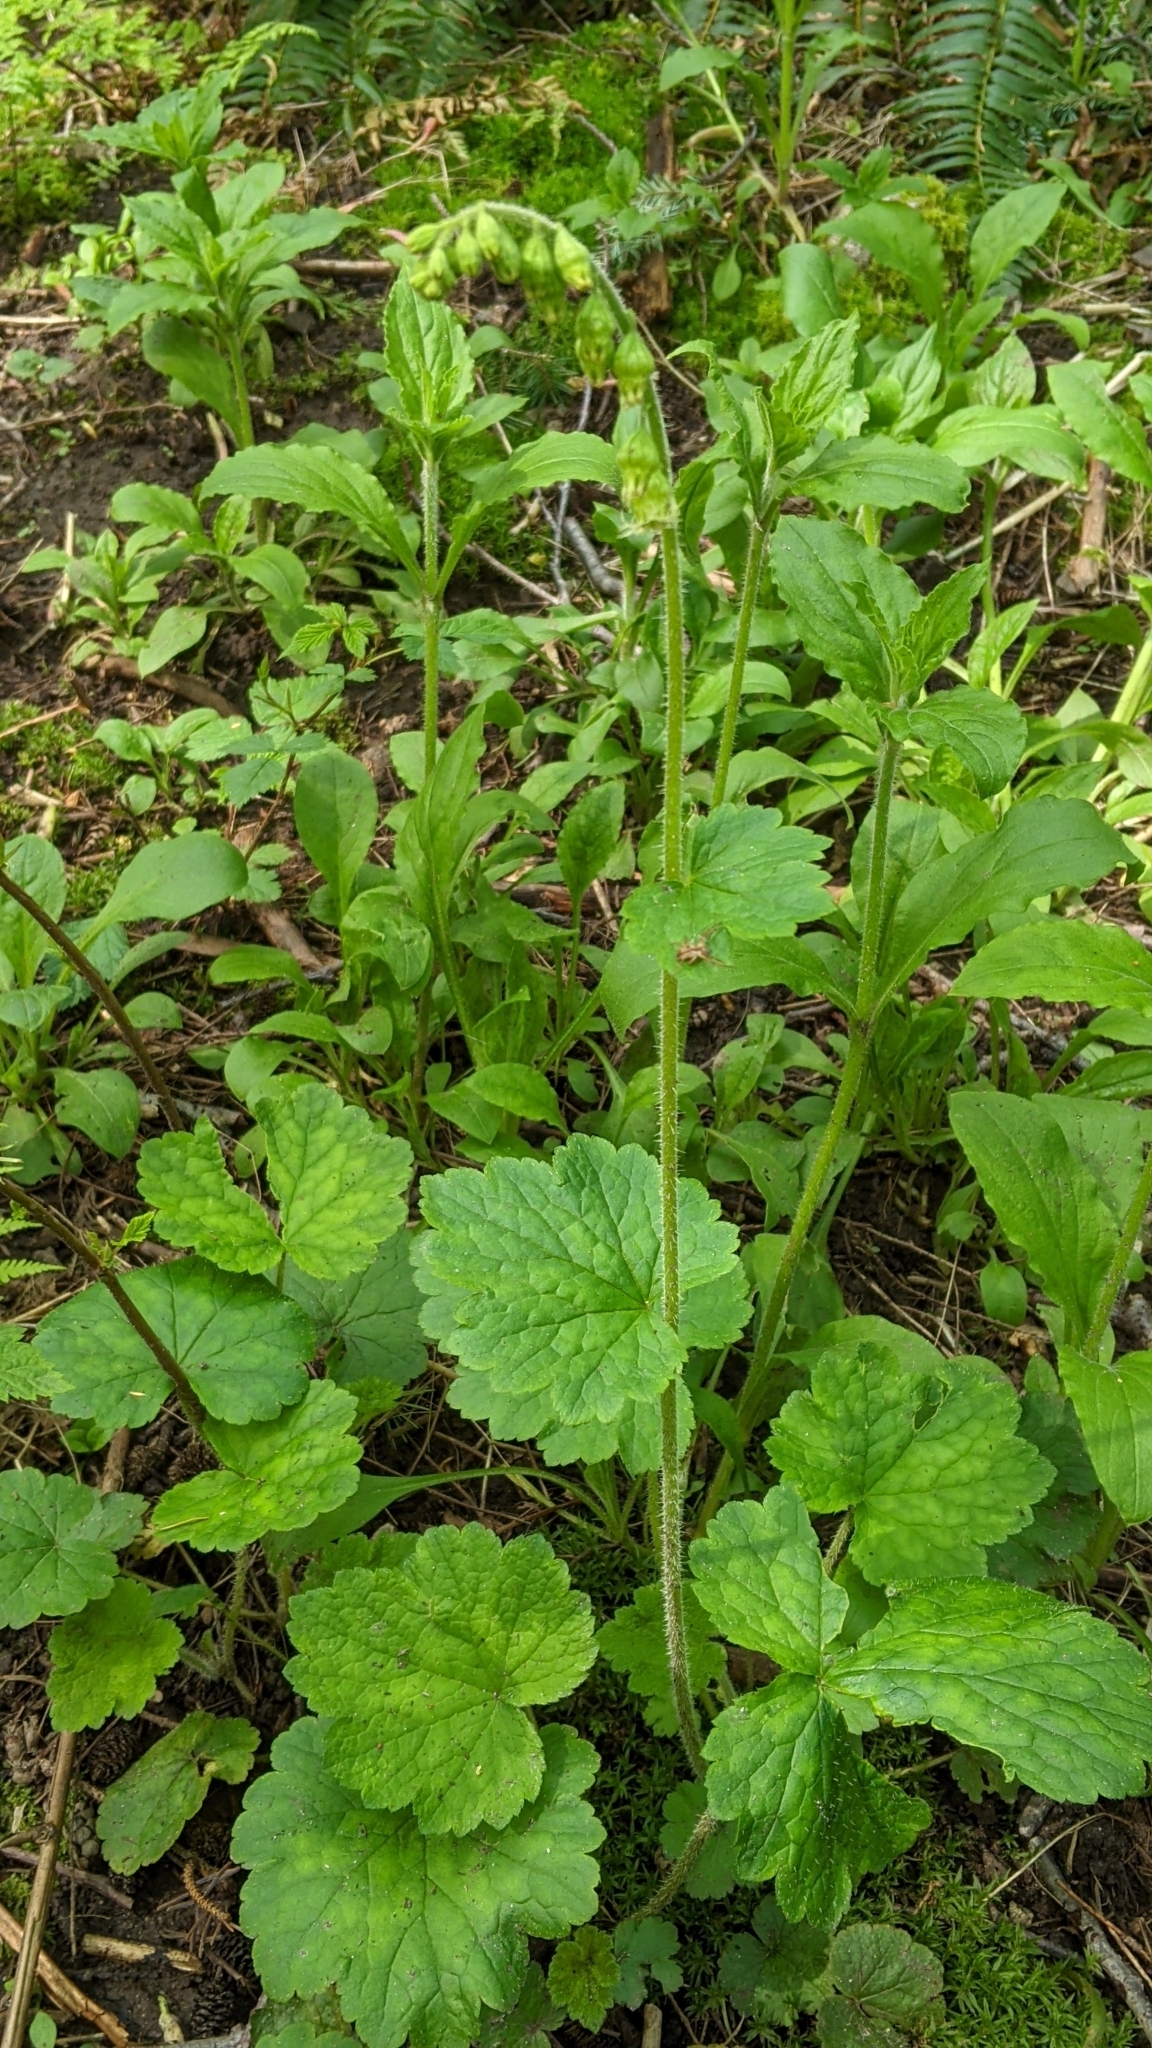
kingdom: Plantae
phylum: Tracheophyta
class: Magnoliopsida
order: Saxifragales
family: Saxifragaceae
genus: Tellima
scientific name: Tellima grandiflora
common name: Fringecups
